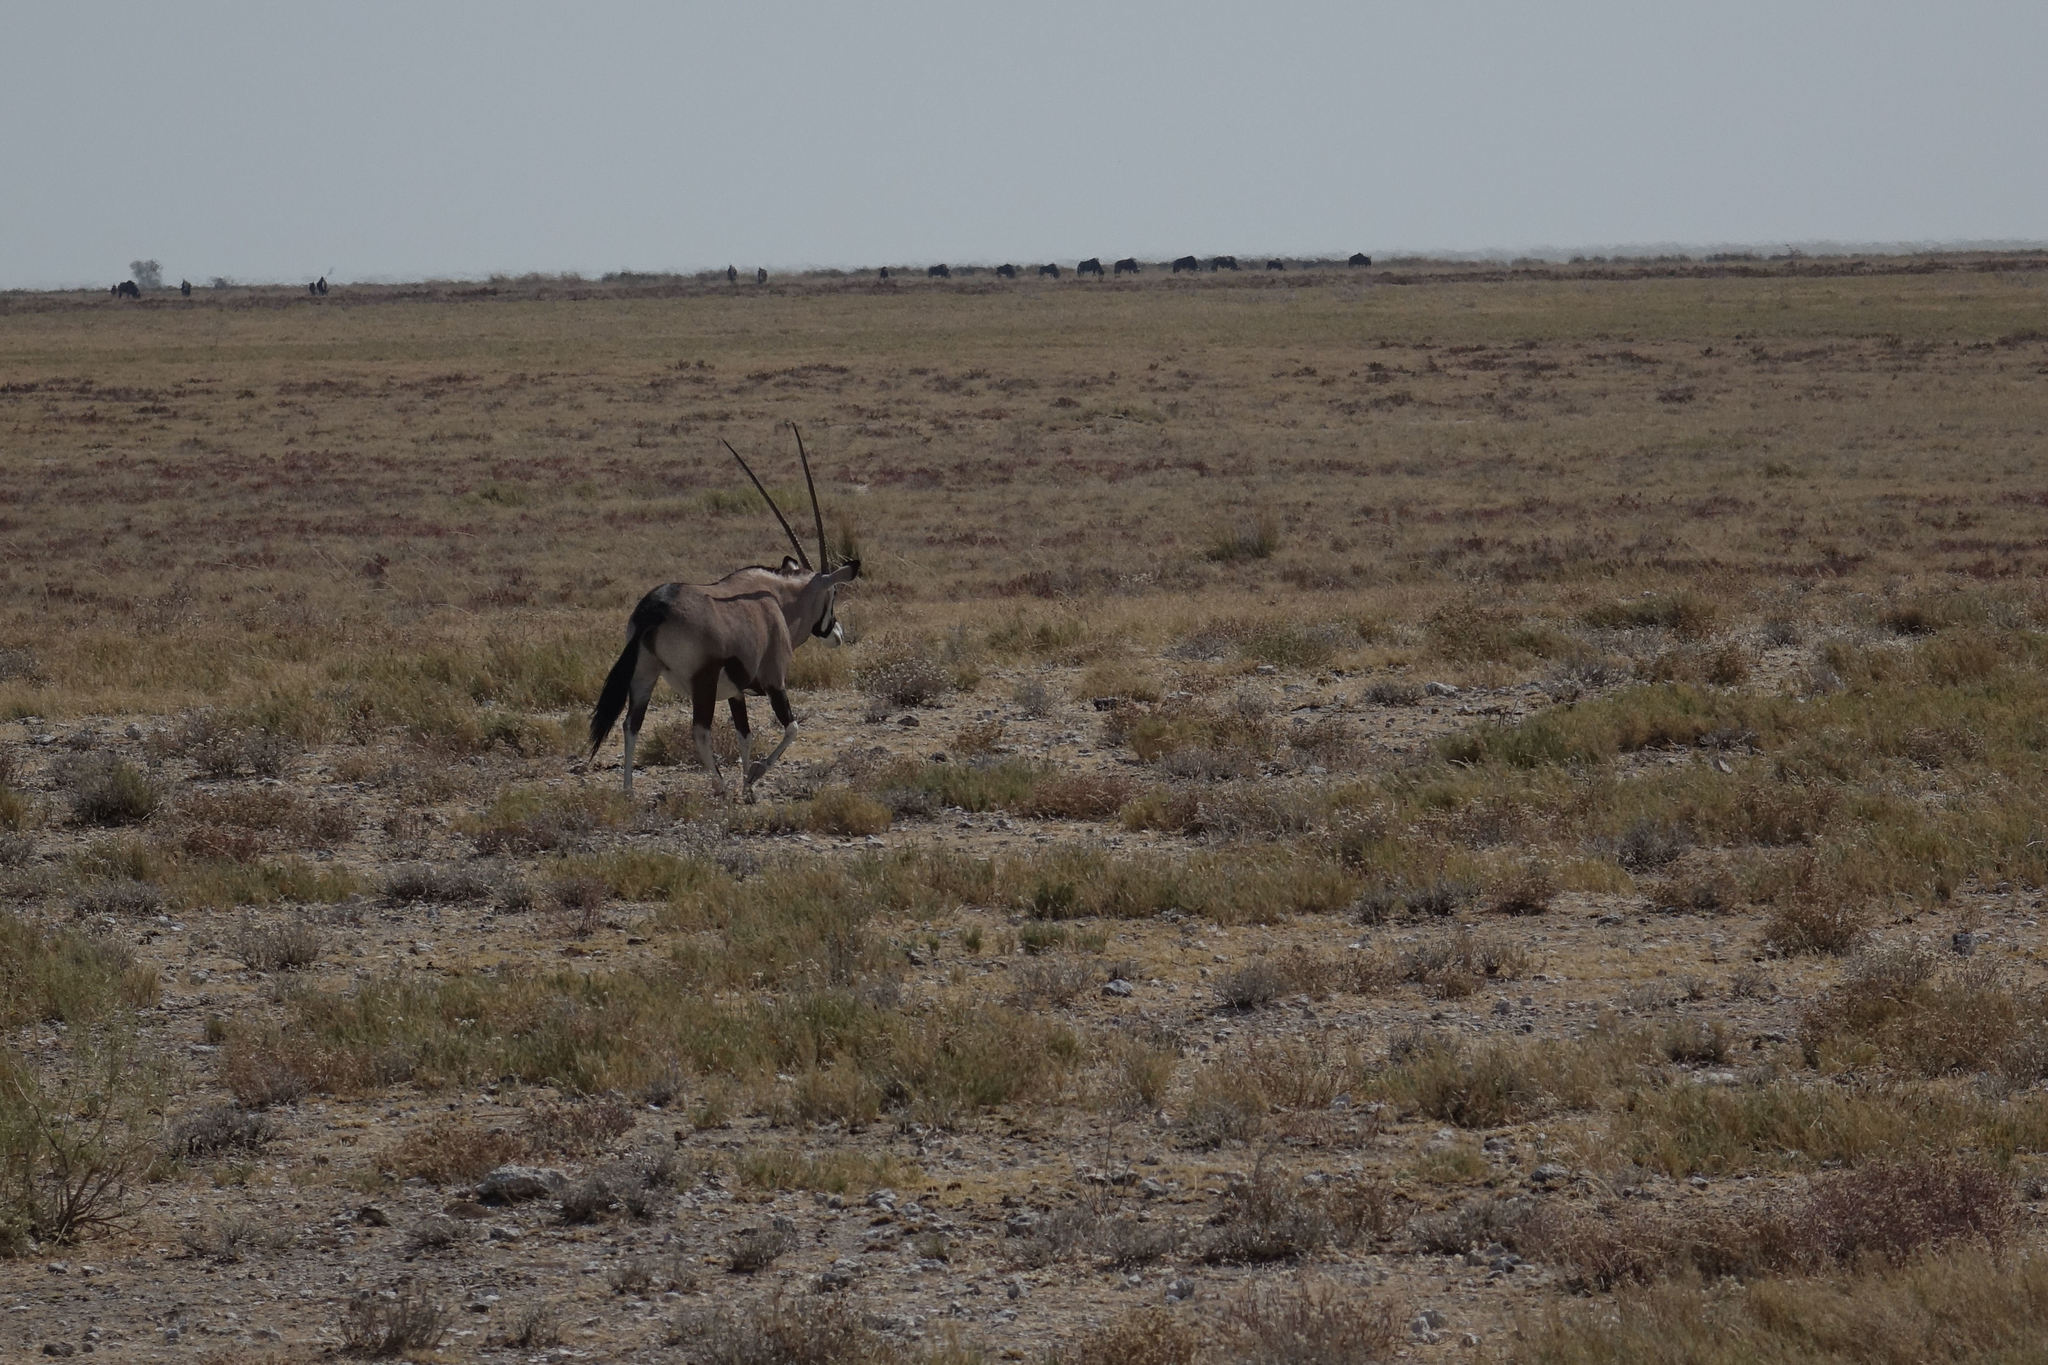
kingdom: Animalia
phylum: Chordata
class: Mammalia
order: Artiodactyla
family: Bovidae
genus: Oryx
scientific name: Oryx gazella
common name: Gemsbok
